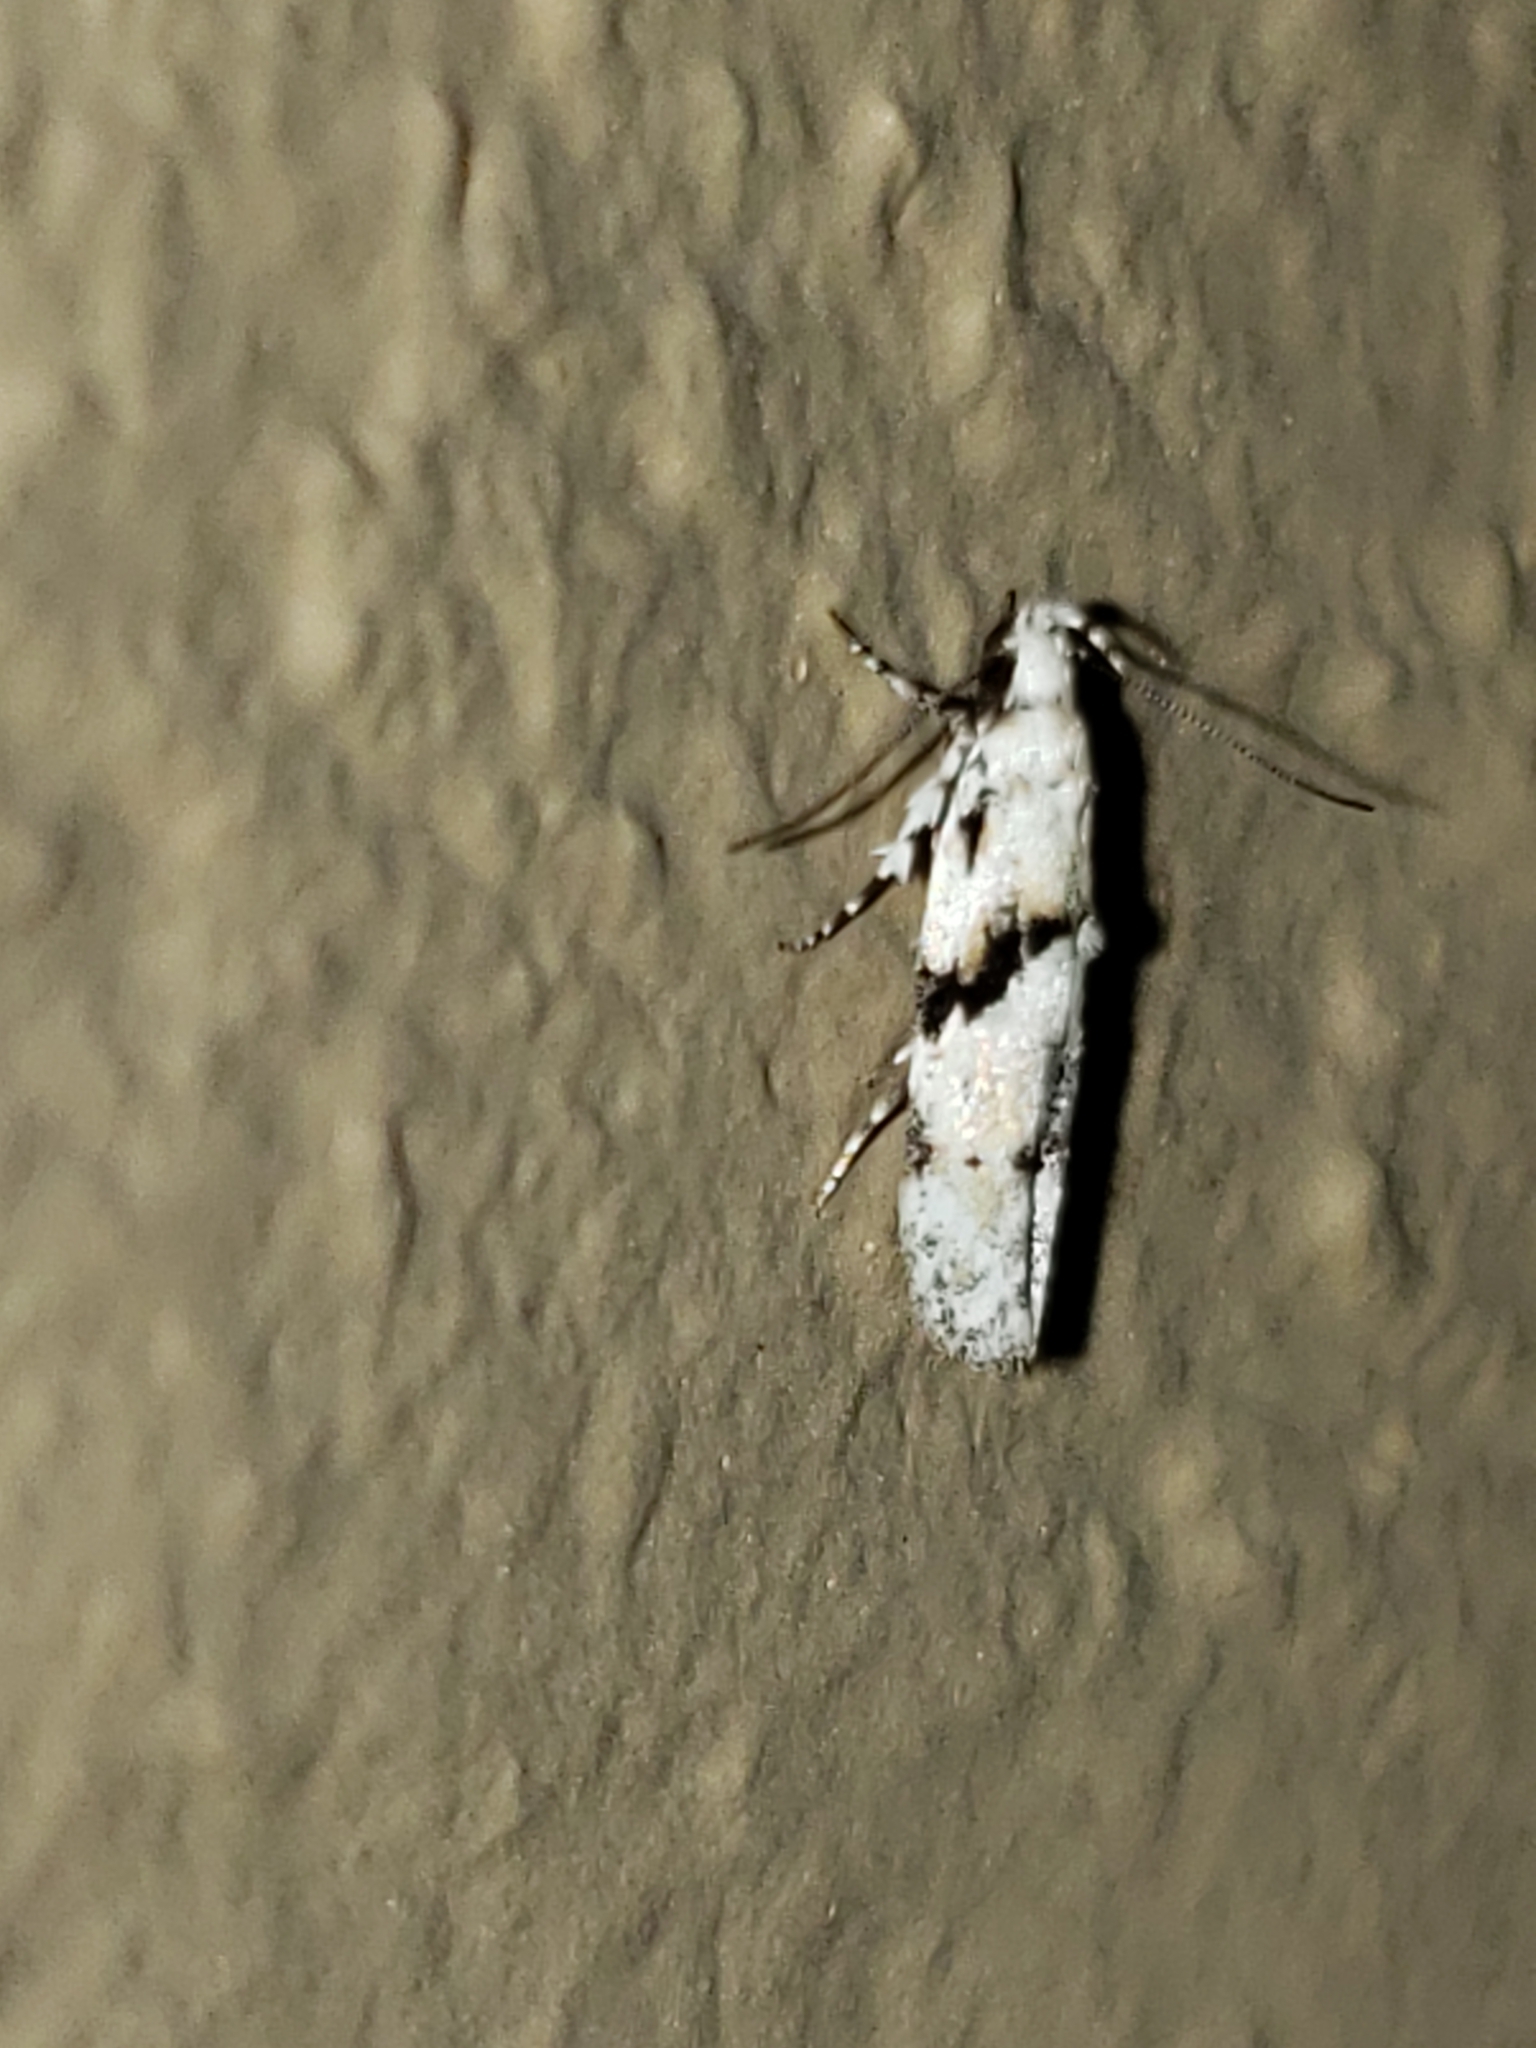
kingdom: Animalia
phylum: Arthropoda
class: Insecta
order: Lepidoptera
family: Gelechiidae
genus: Arogalea
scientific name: Arogalea cristifasciella
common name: White stripe-backed moth
